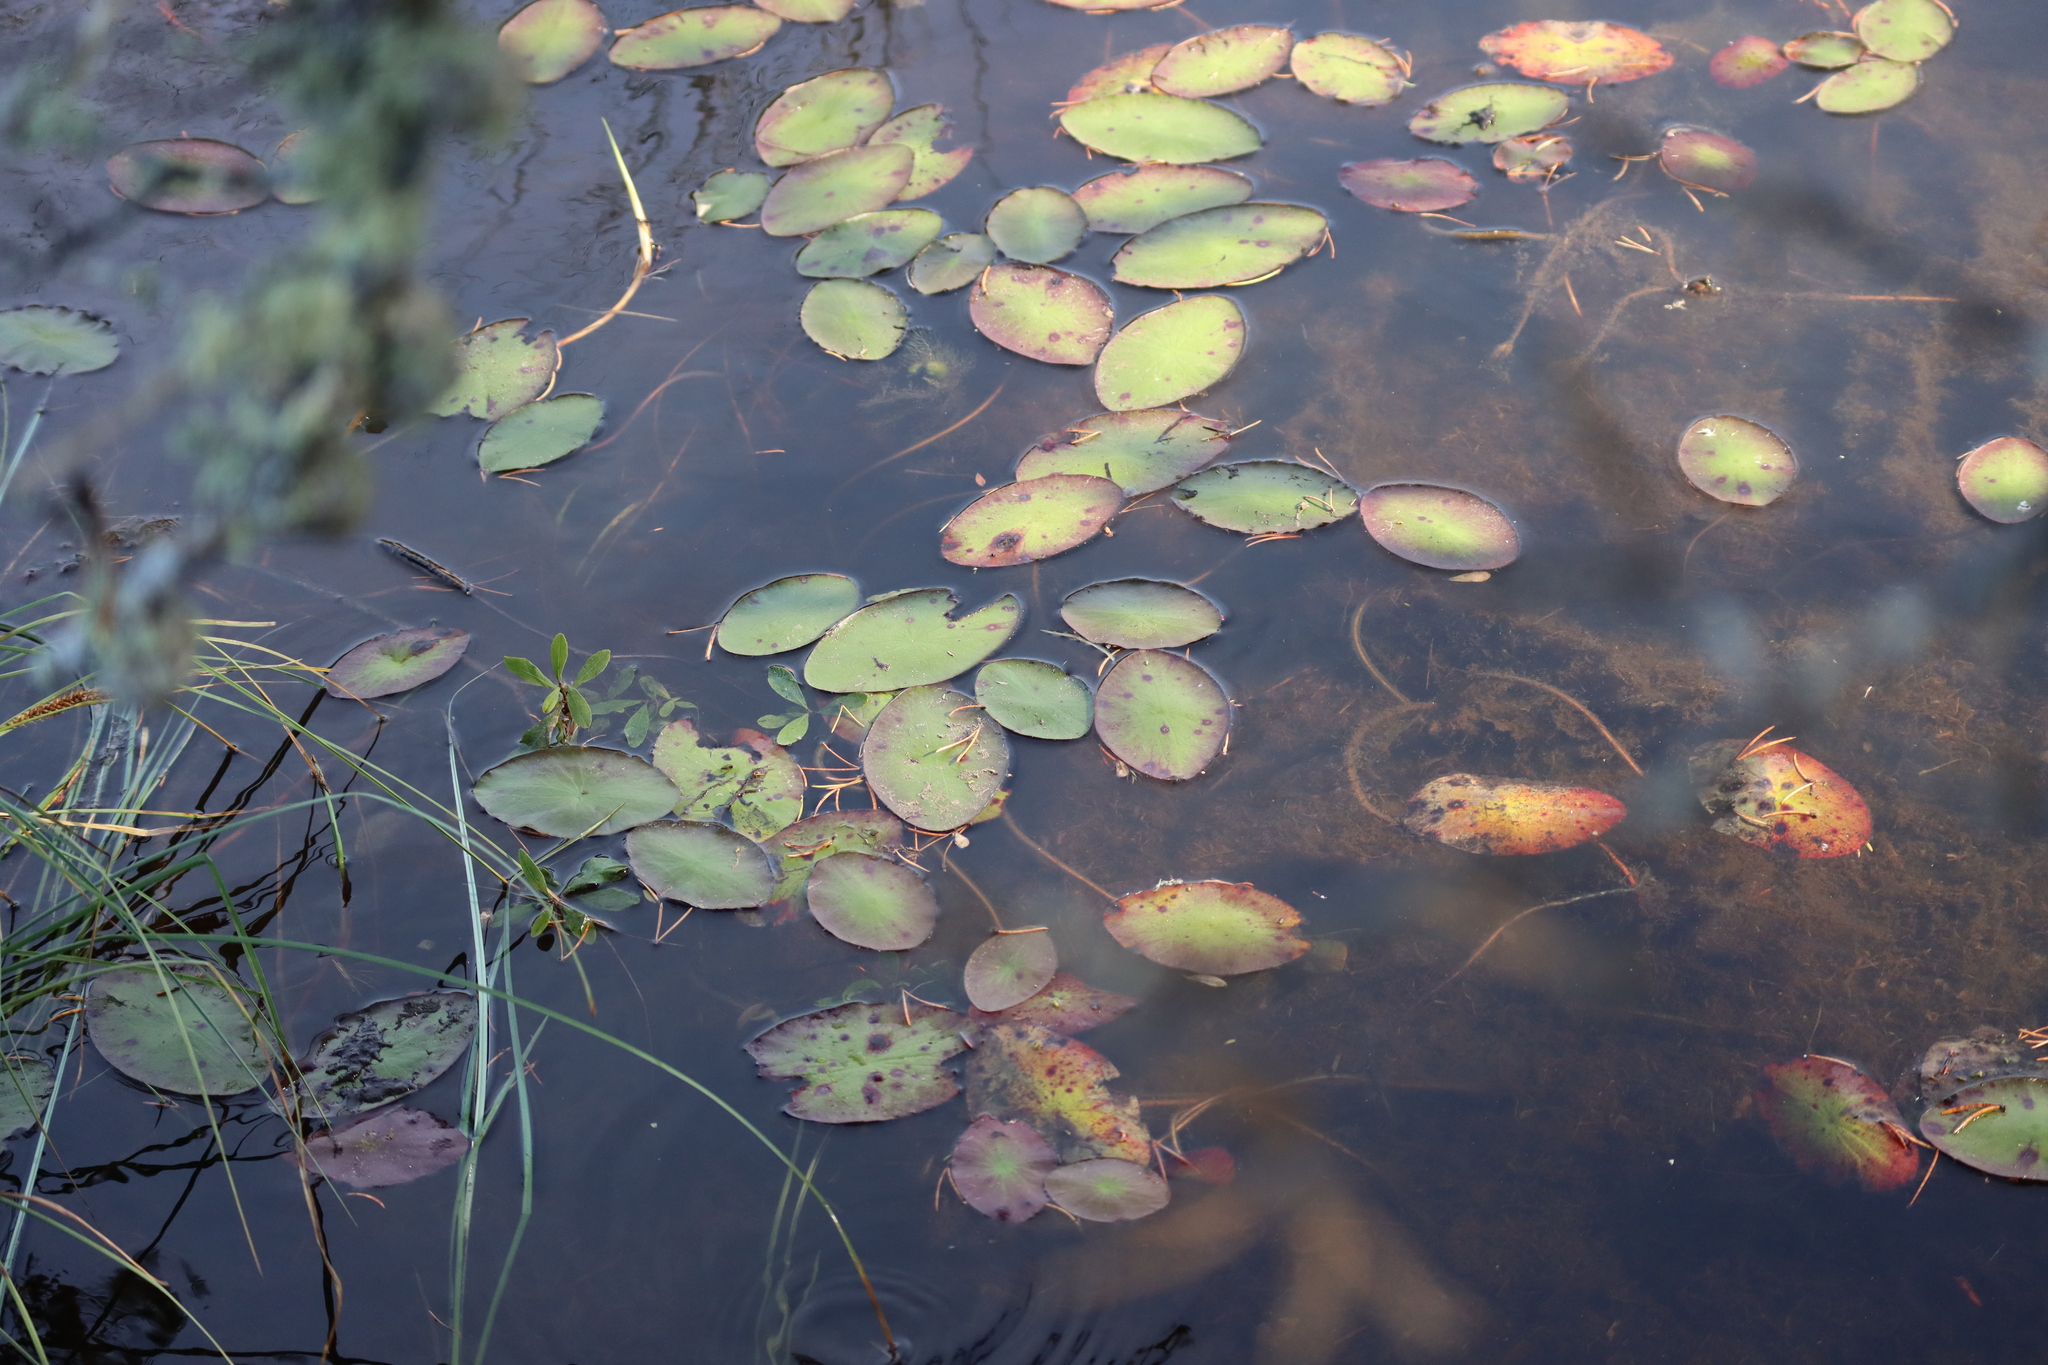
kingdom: Plantae
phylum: Tracheophyta
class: Magnoliopsida
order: Nymphaeales
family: Cabombaceae
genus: Brasenia
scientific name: Brasenia schreberi
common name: Water-shield
